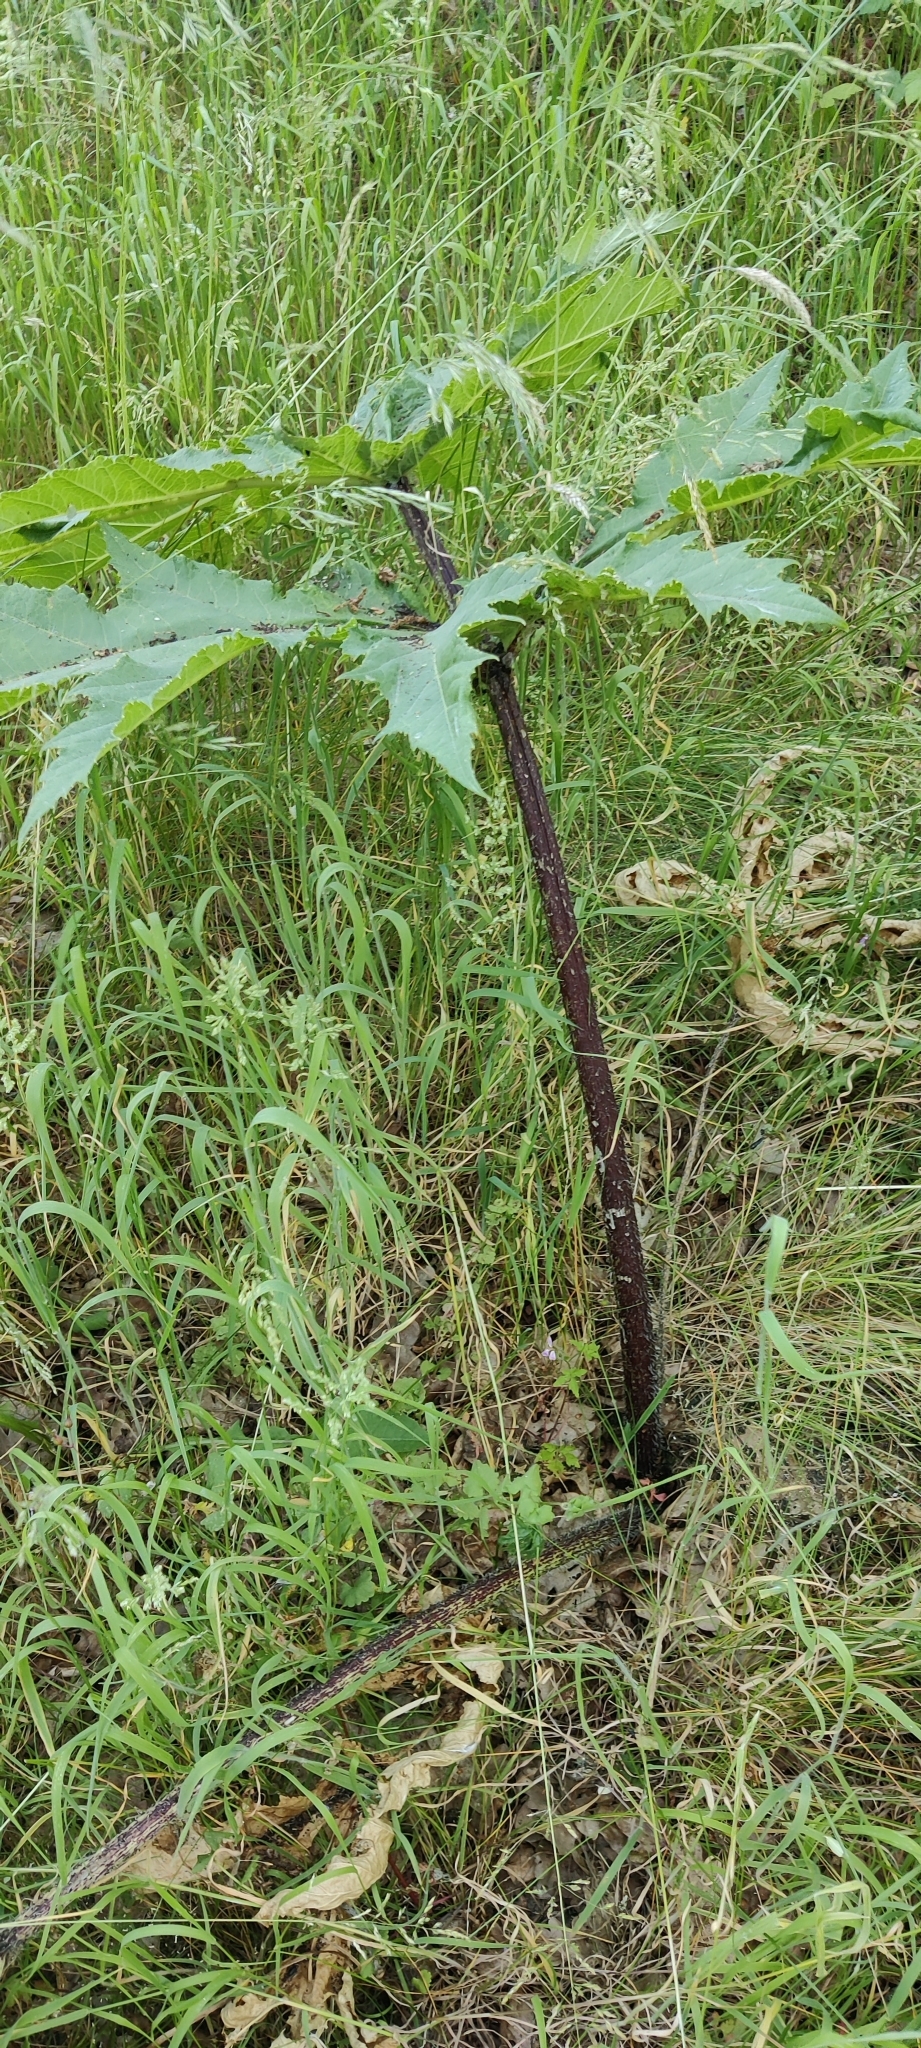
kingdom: Plantae
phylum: Tracheophyta
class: Magnoliopsida
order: Apiales
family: Apiaceae
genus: Heracleum
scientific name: Heracleum mantegazzianum
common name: Giant hogweed
